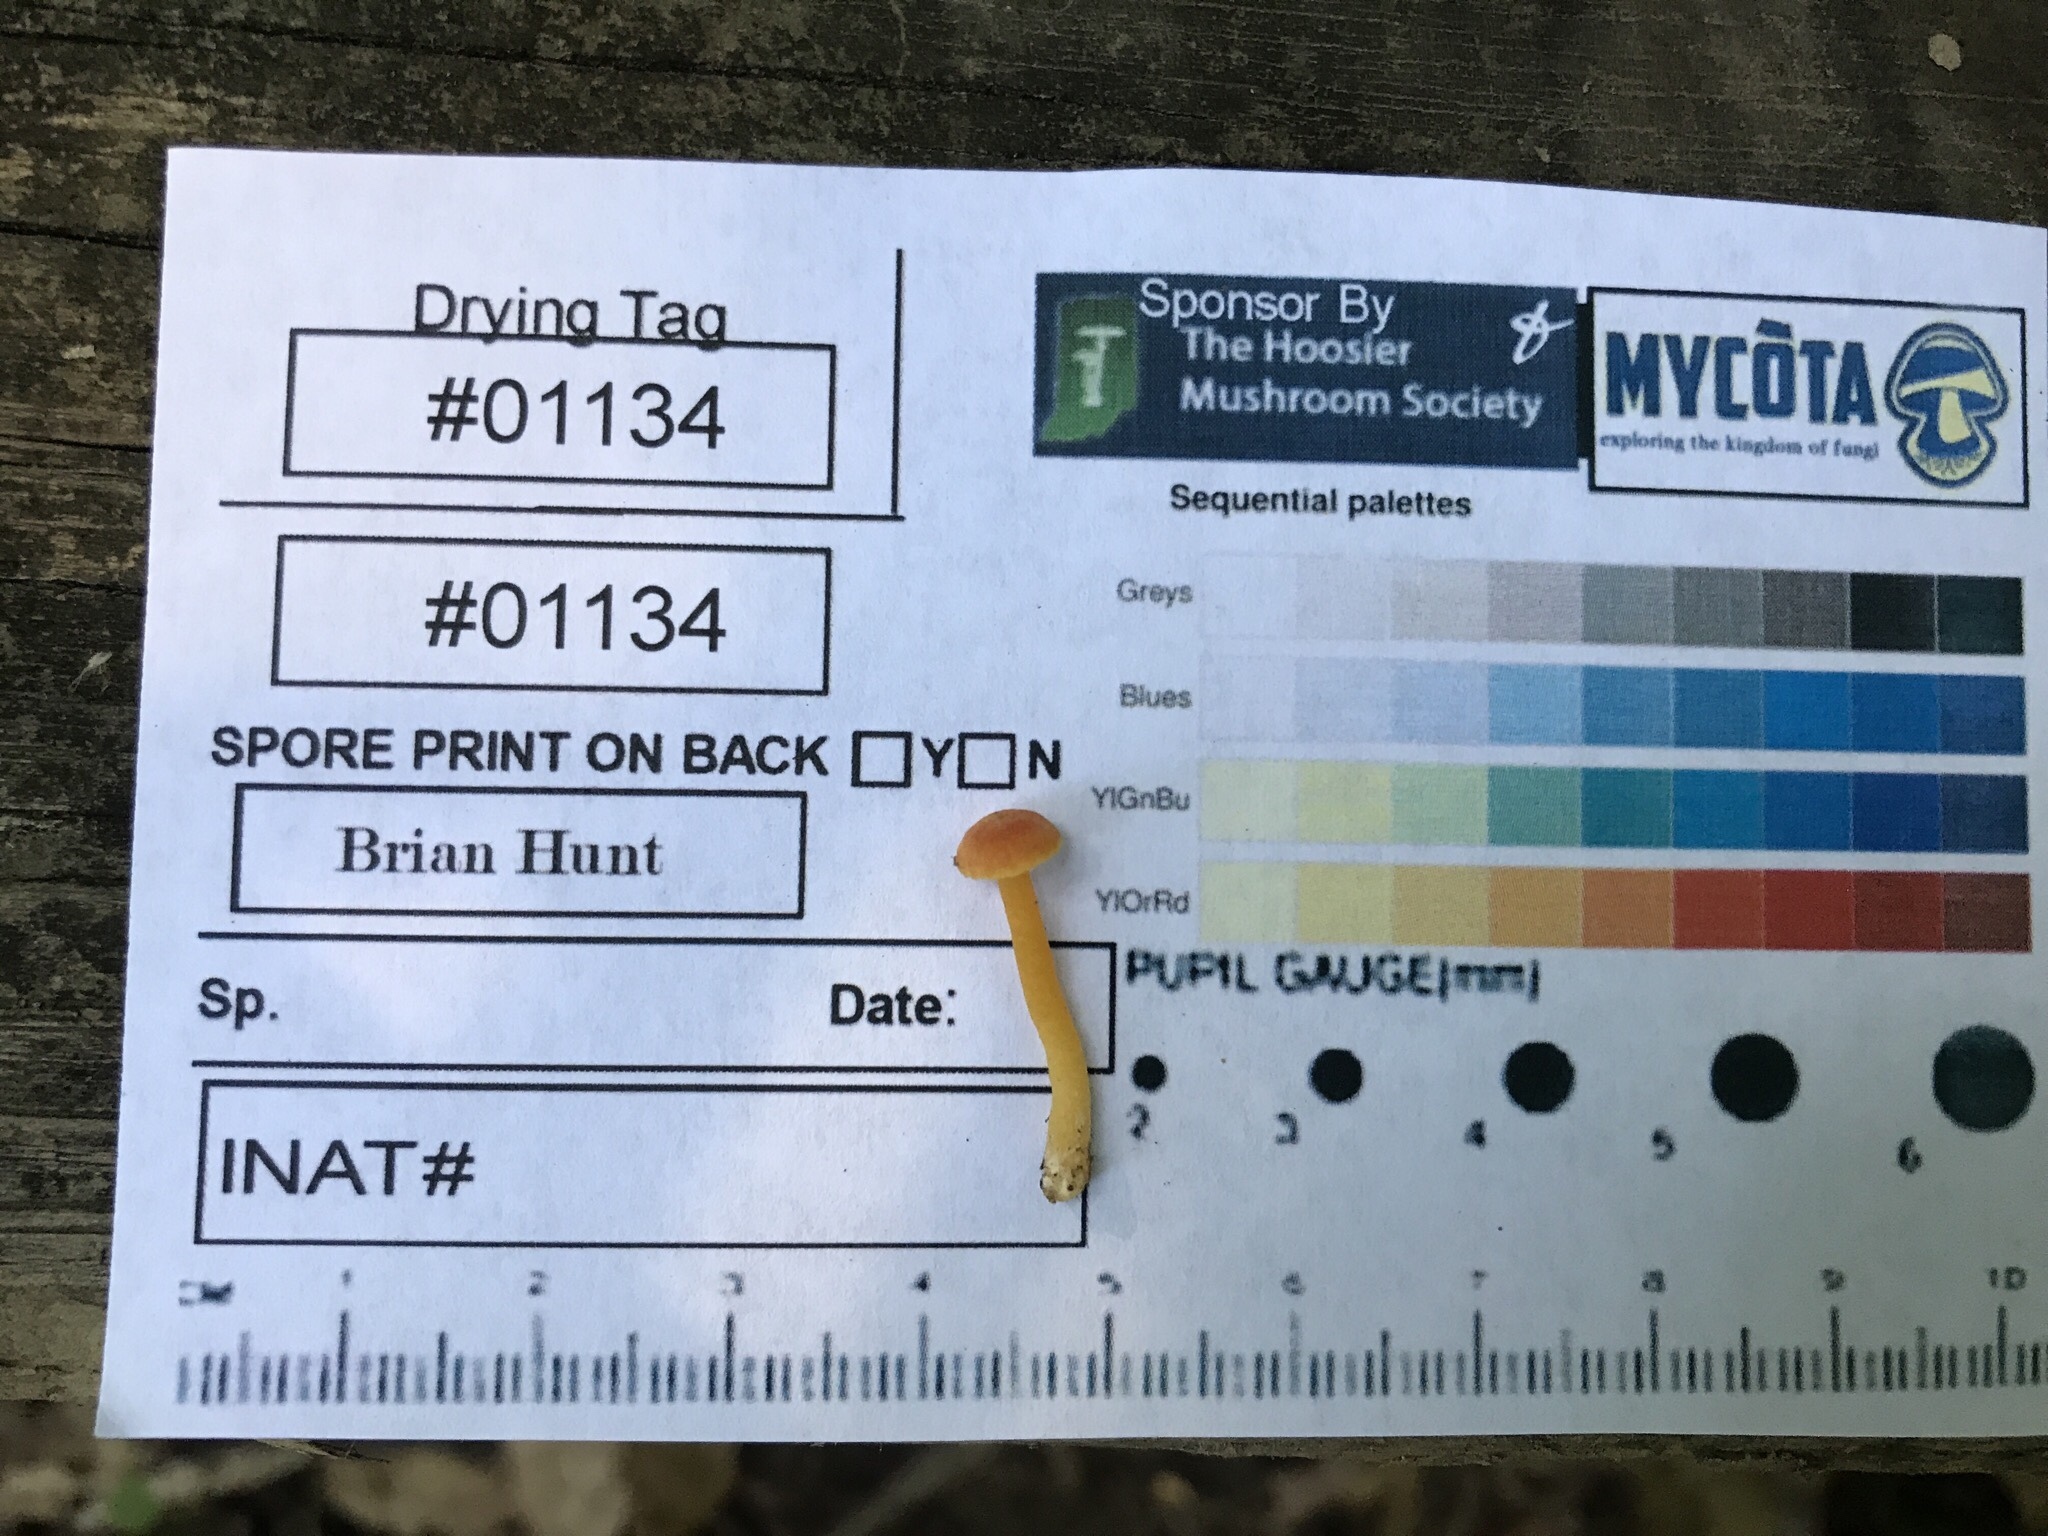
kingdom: Fungi
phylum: Basidiomycota
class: Agaricomycetes
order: Agaricales
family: Hygrophoraceae
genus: Hygrocybe
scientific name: Hygrocybe cantharellus
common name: Goblet waxcap
